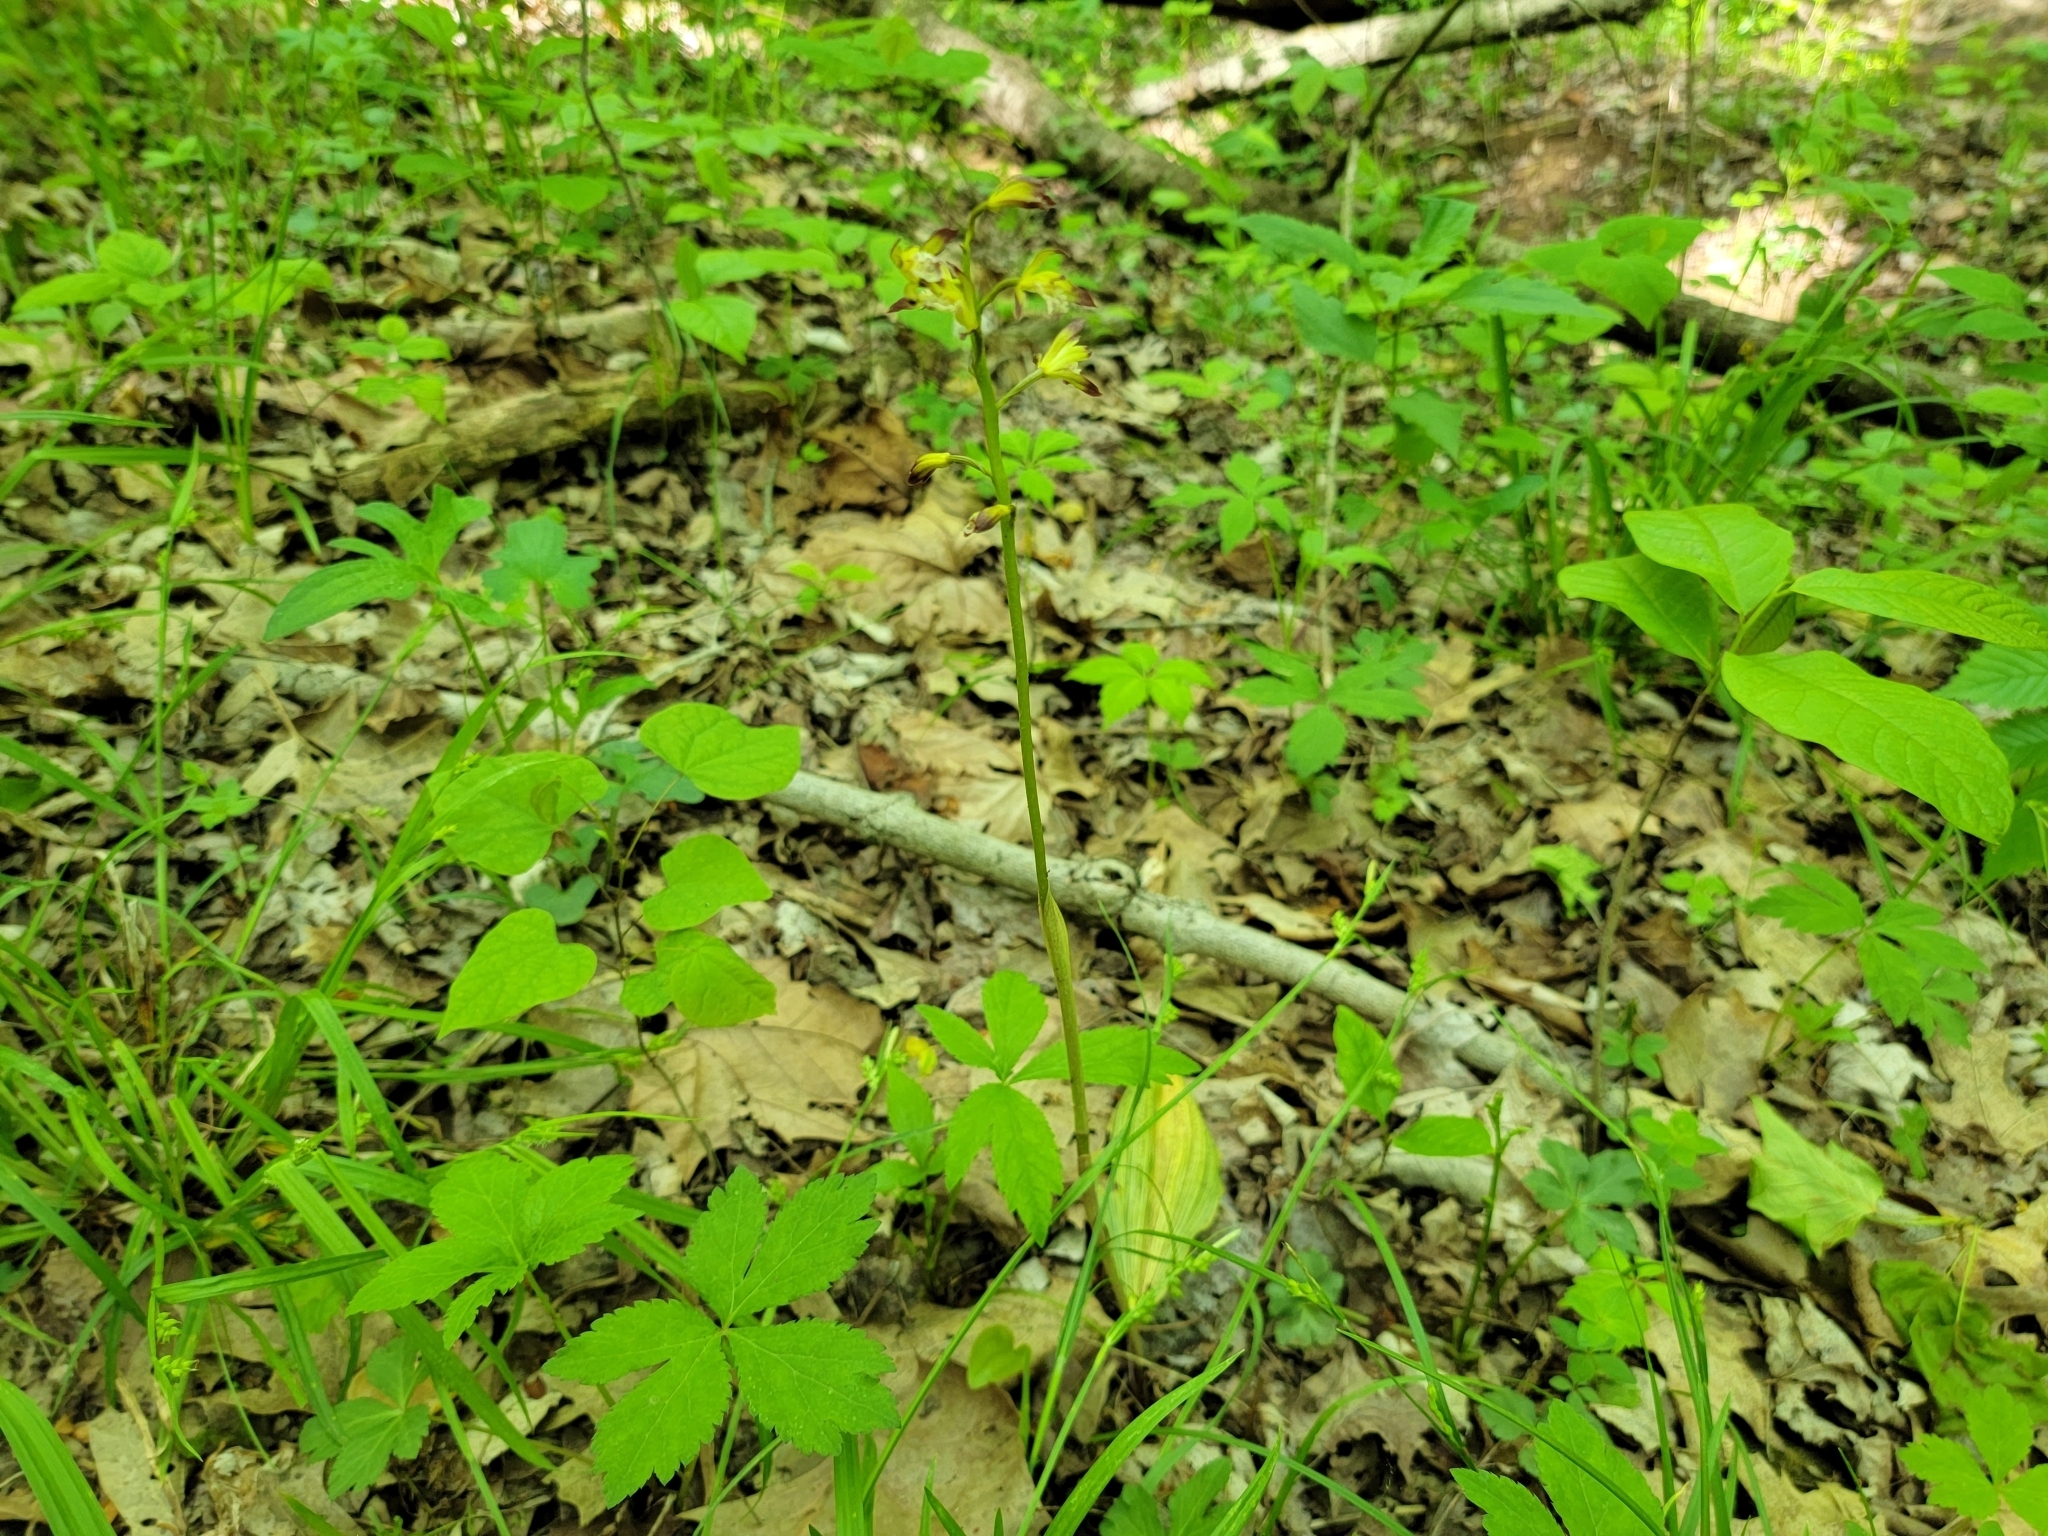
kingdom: Plantae
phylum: Tracheophyta
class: Liliopsida
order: Asparagales
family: Orchidaceae
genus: Aplectrum
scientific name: Aplectrum hyemale
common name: Adam-and-eve
